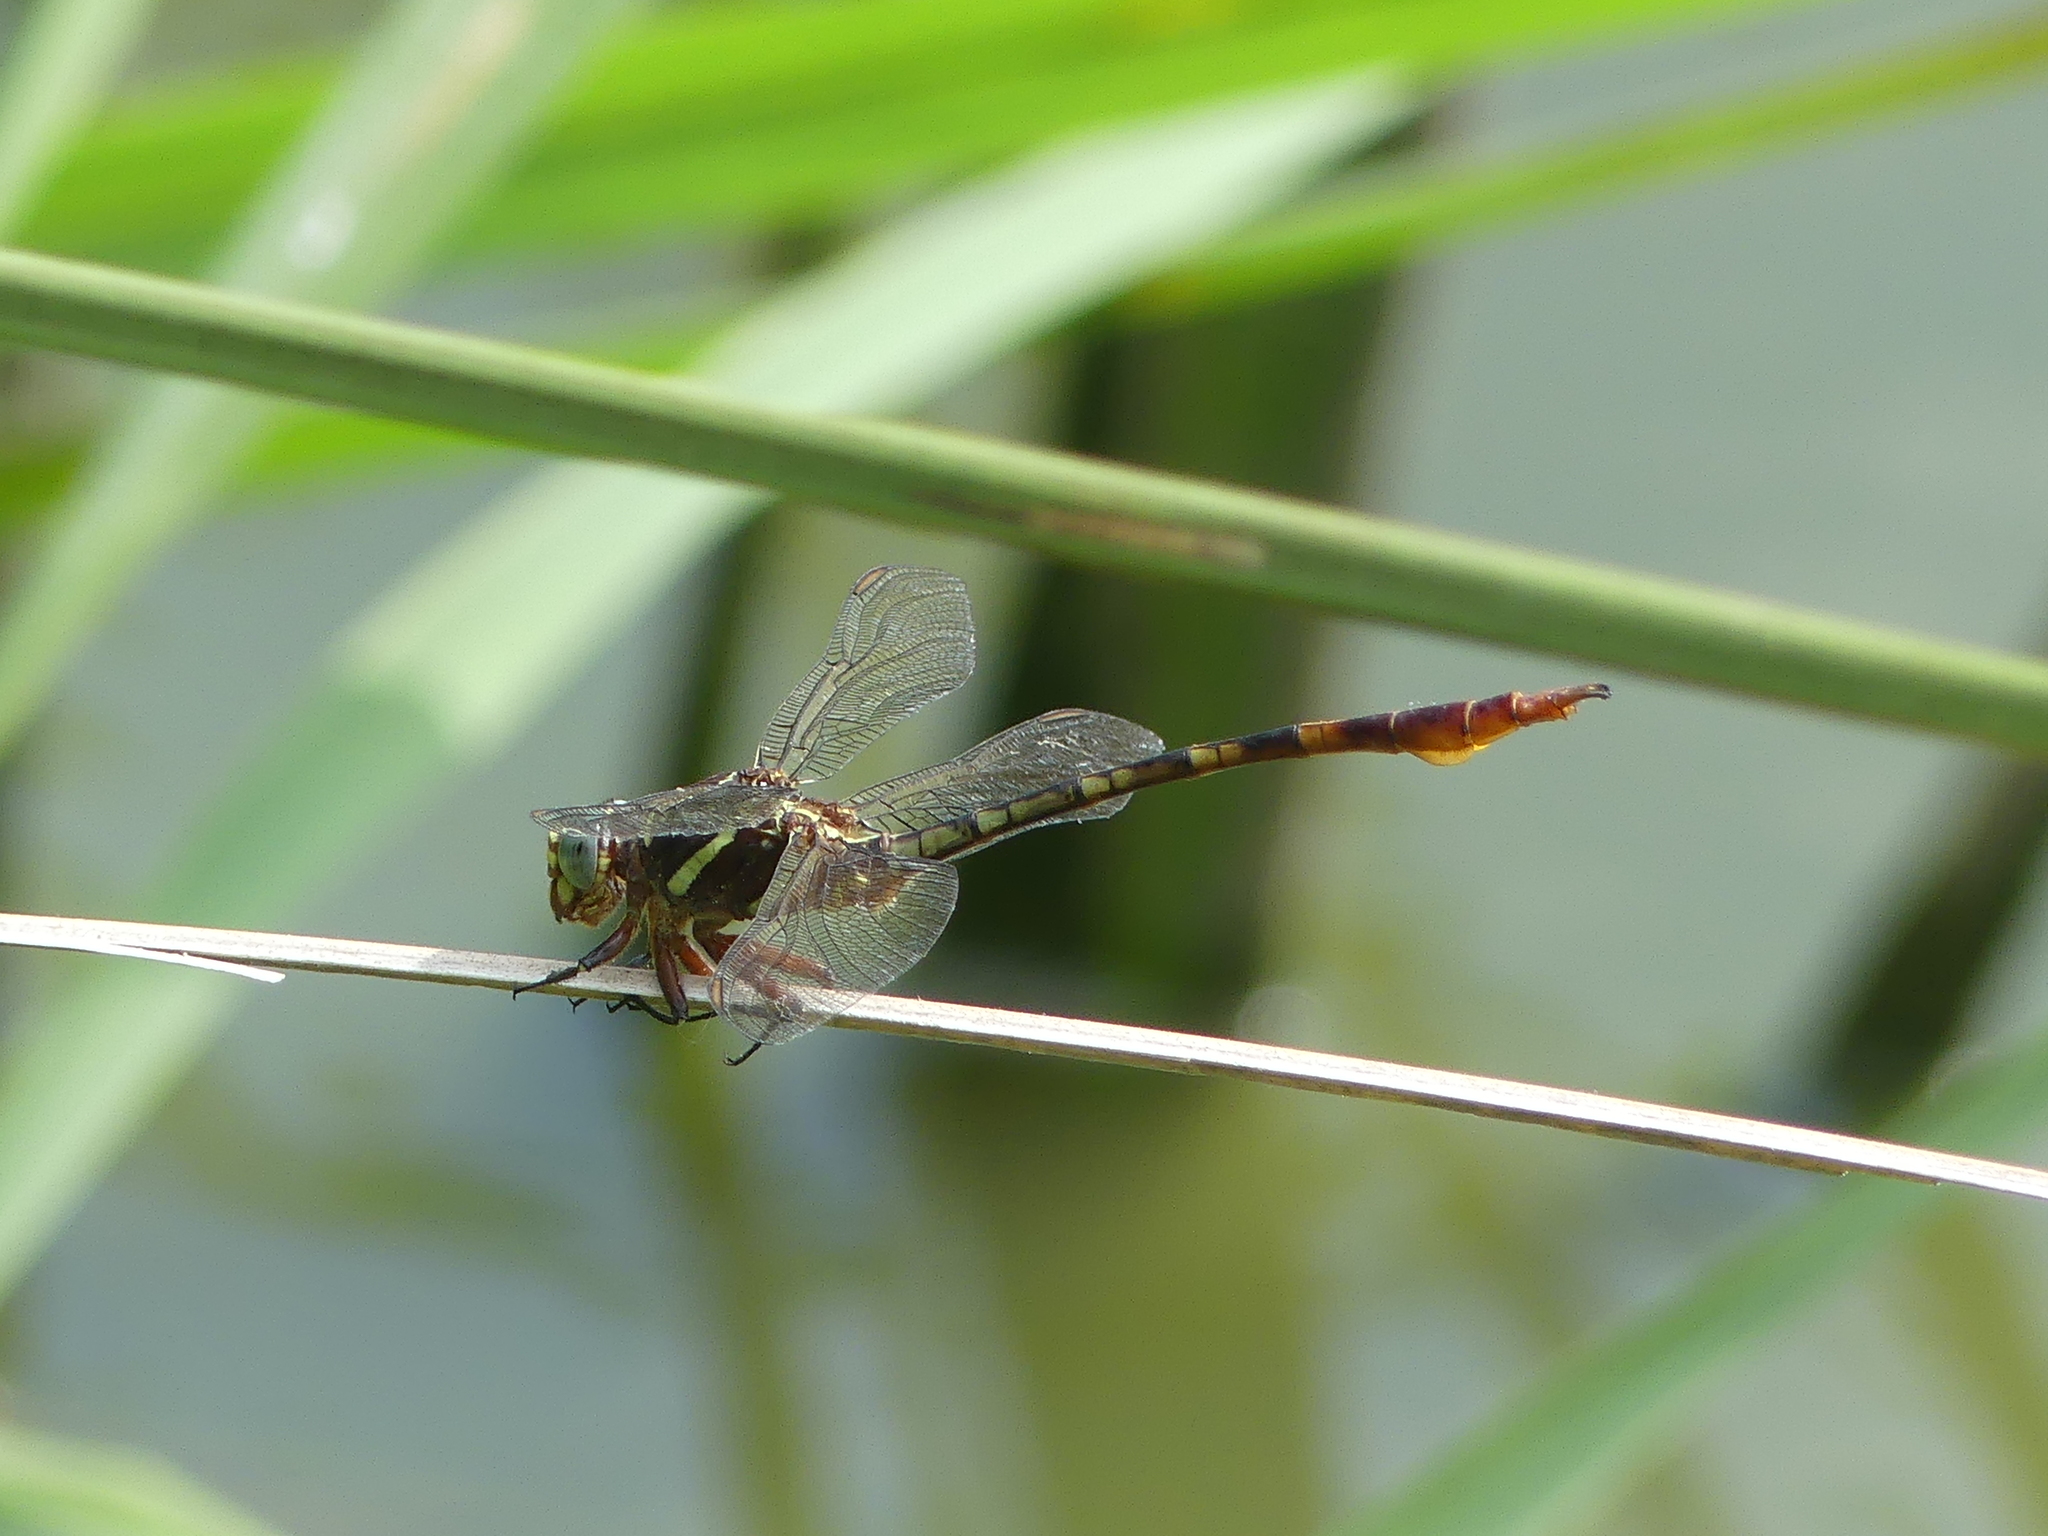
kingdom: Animalia
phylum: Arthropoda
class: Insecta
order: Odonata
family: Gomphidae
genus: Aphylla
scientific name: Aphylla williamsoni
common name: Two-striped forceptail
